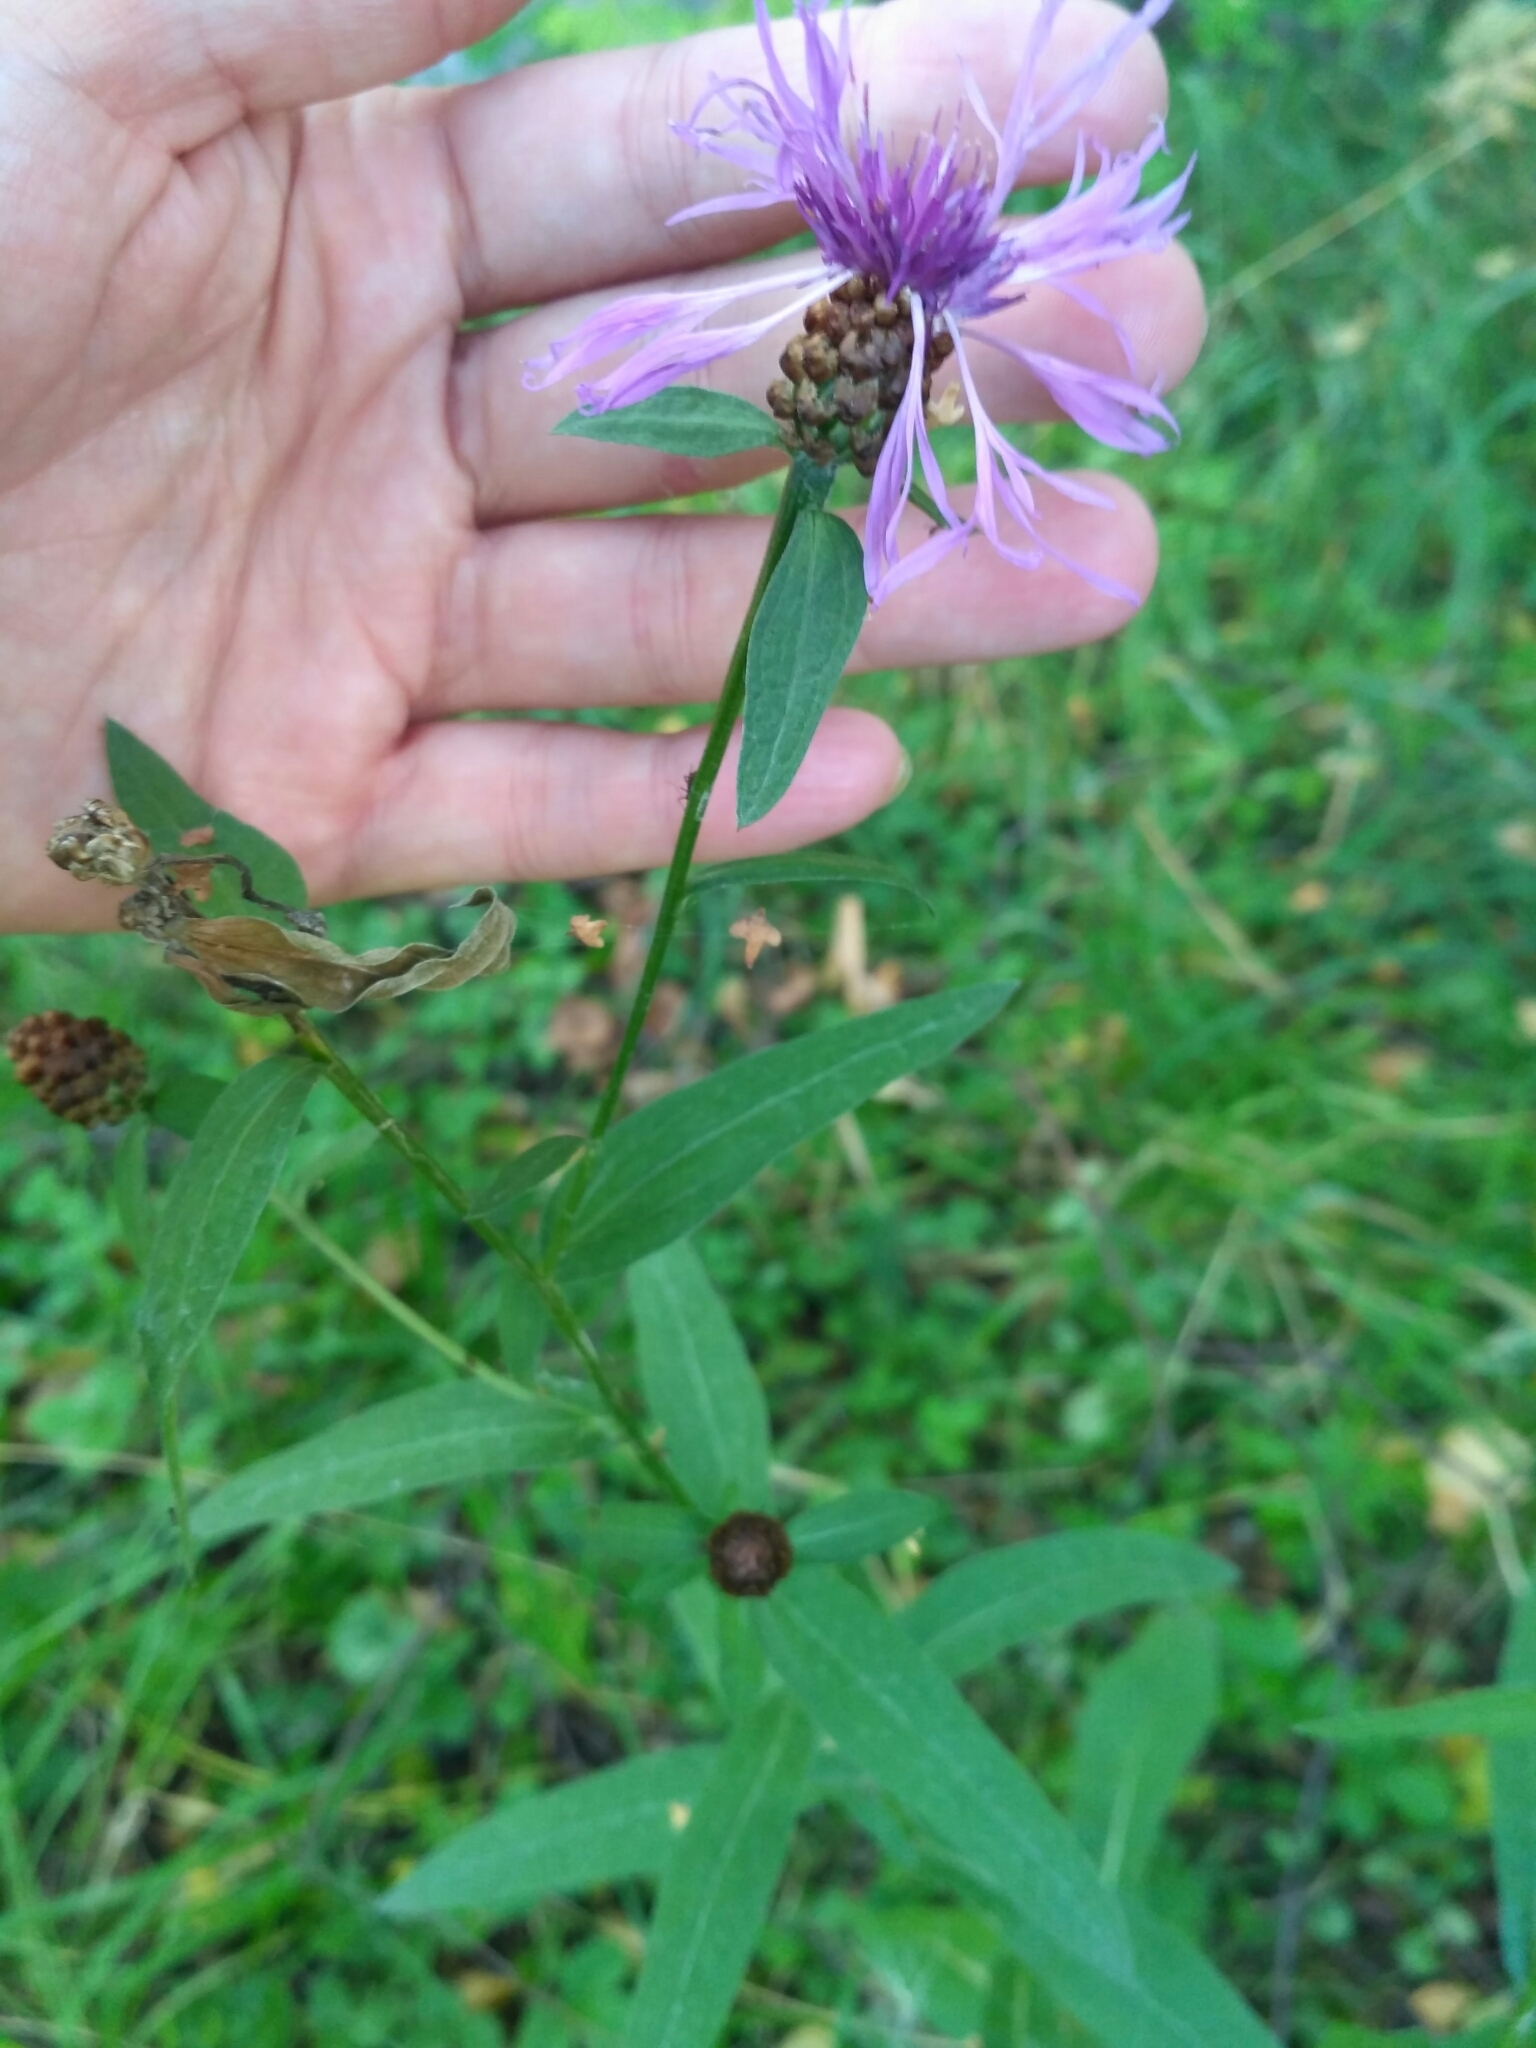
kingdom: Plantae
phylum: Tracheophyta
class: Magnoliopsida
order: Asterales
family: Asteraceae
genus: Centaurea
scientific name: Centaurea jacea
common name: Brown knapweed
